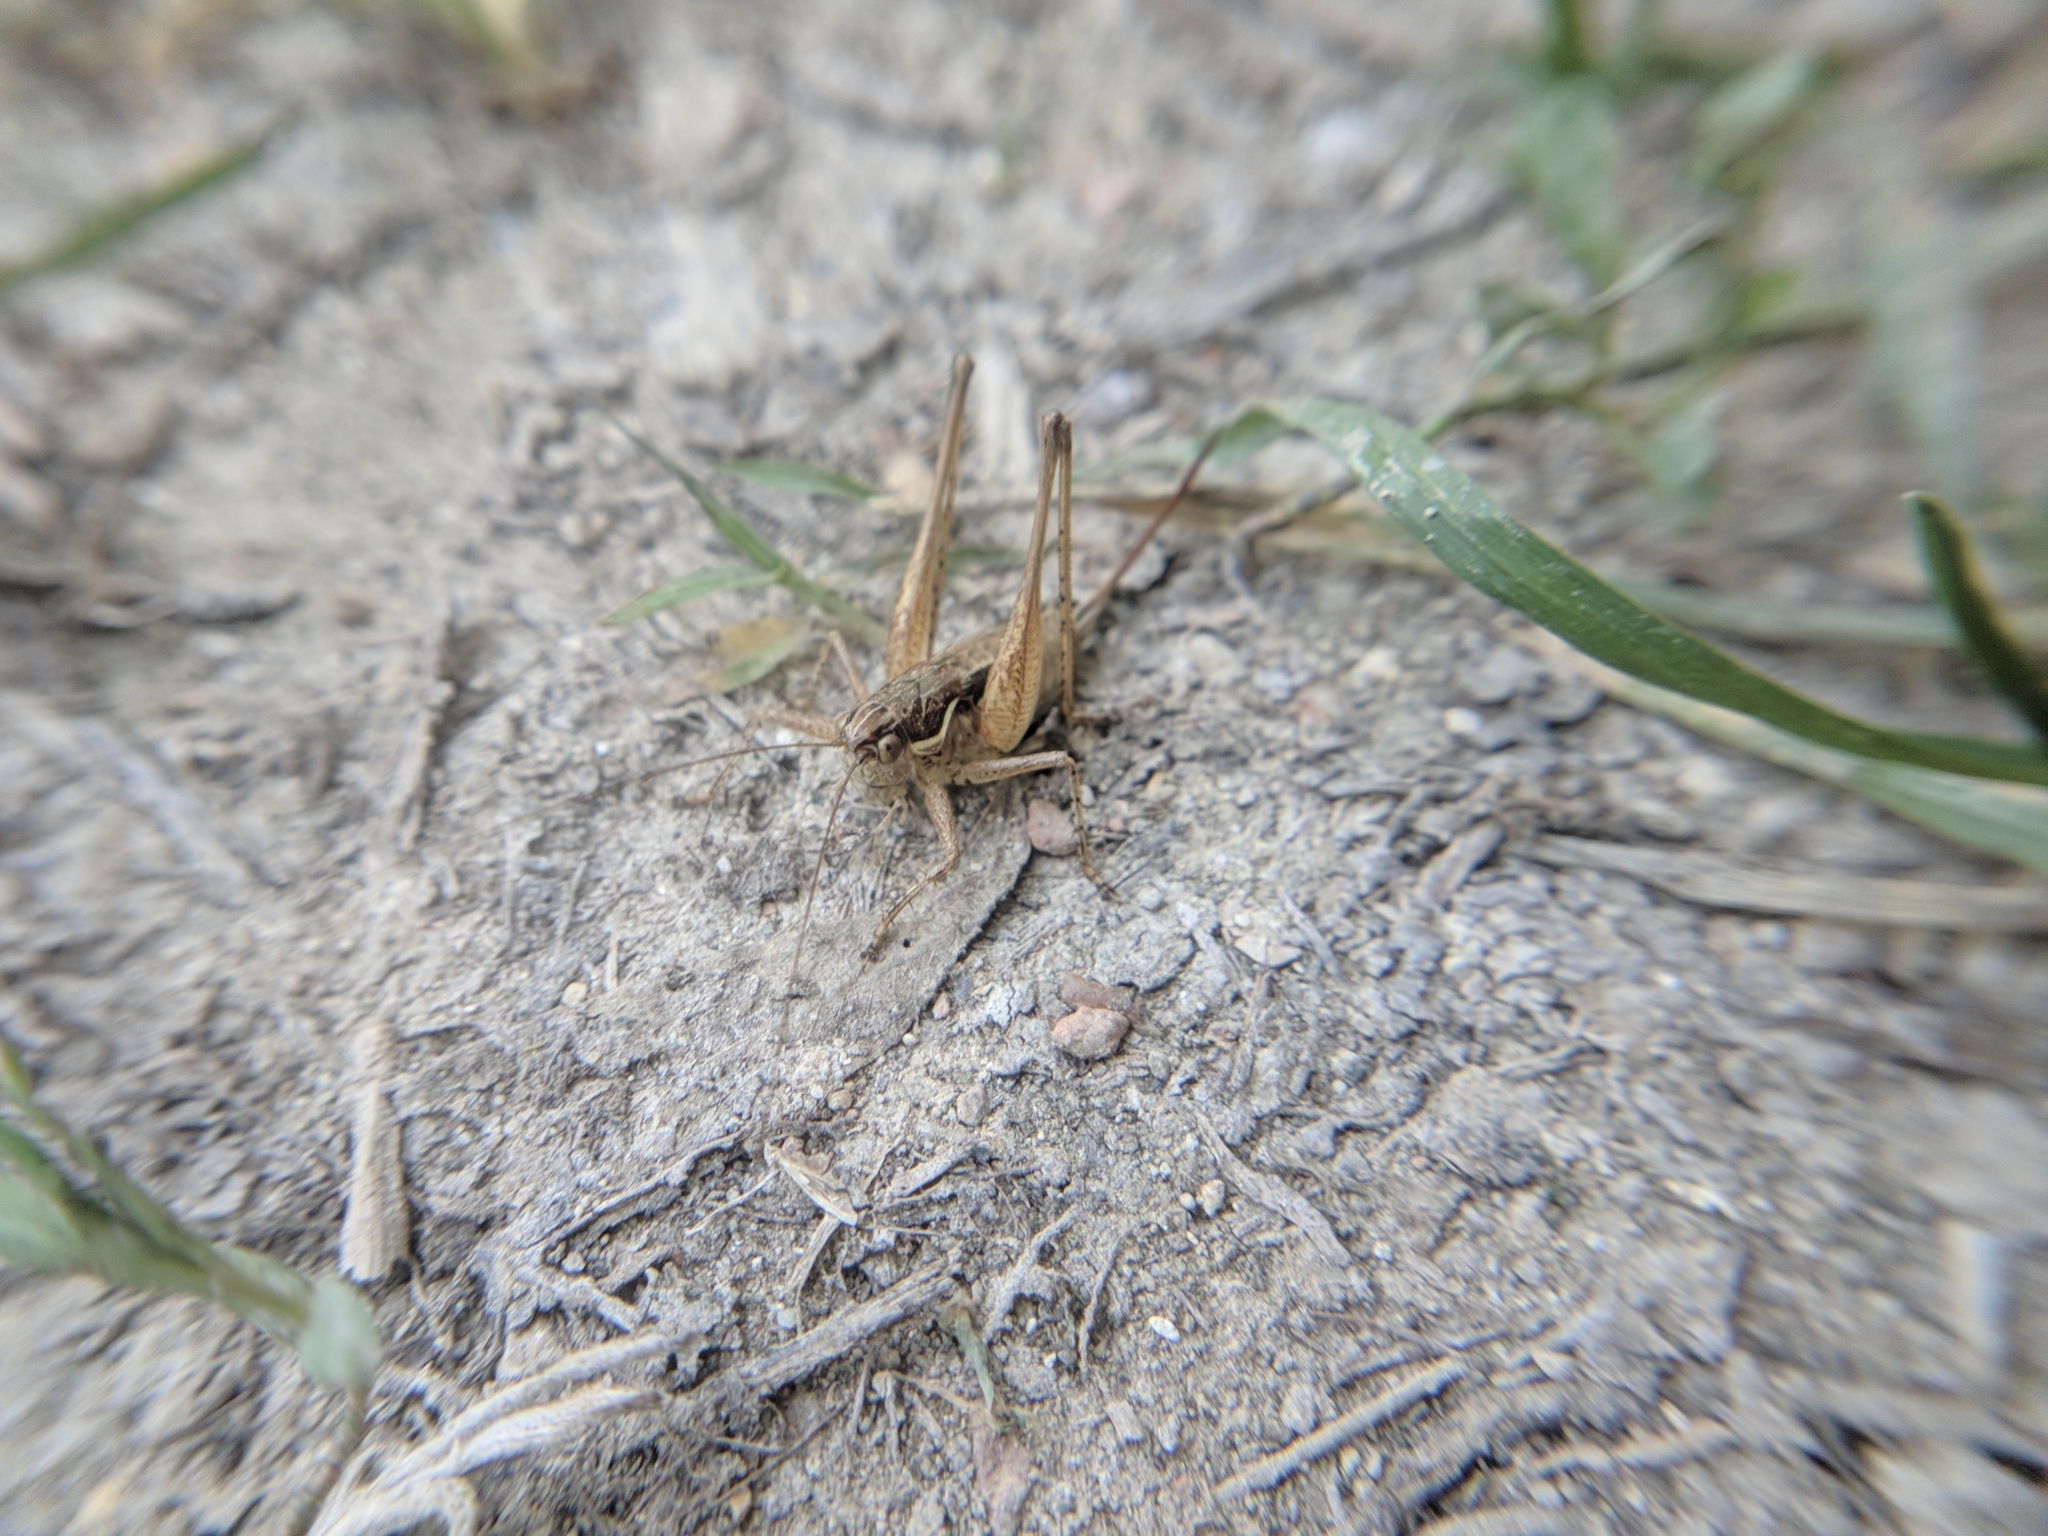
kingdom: Animalia
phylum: Arthropoda
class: Insecta
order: Orthoptera
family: Tettigoniidae
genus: Pachytrachis
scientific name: Pachytrachis gracilis
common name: Graceful bush-cricket
